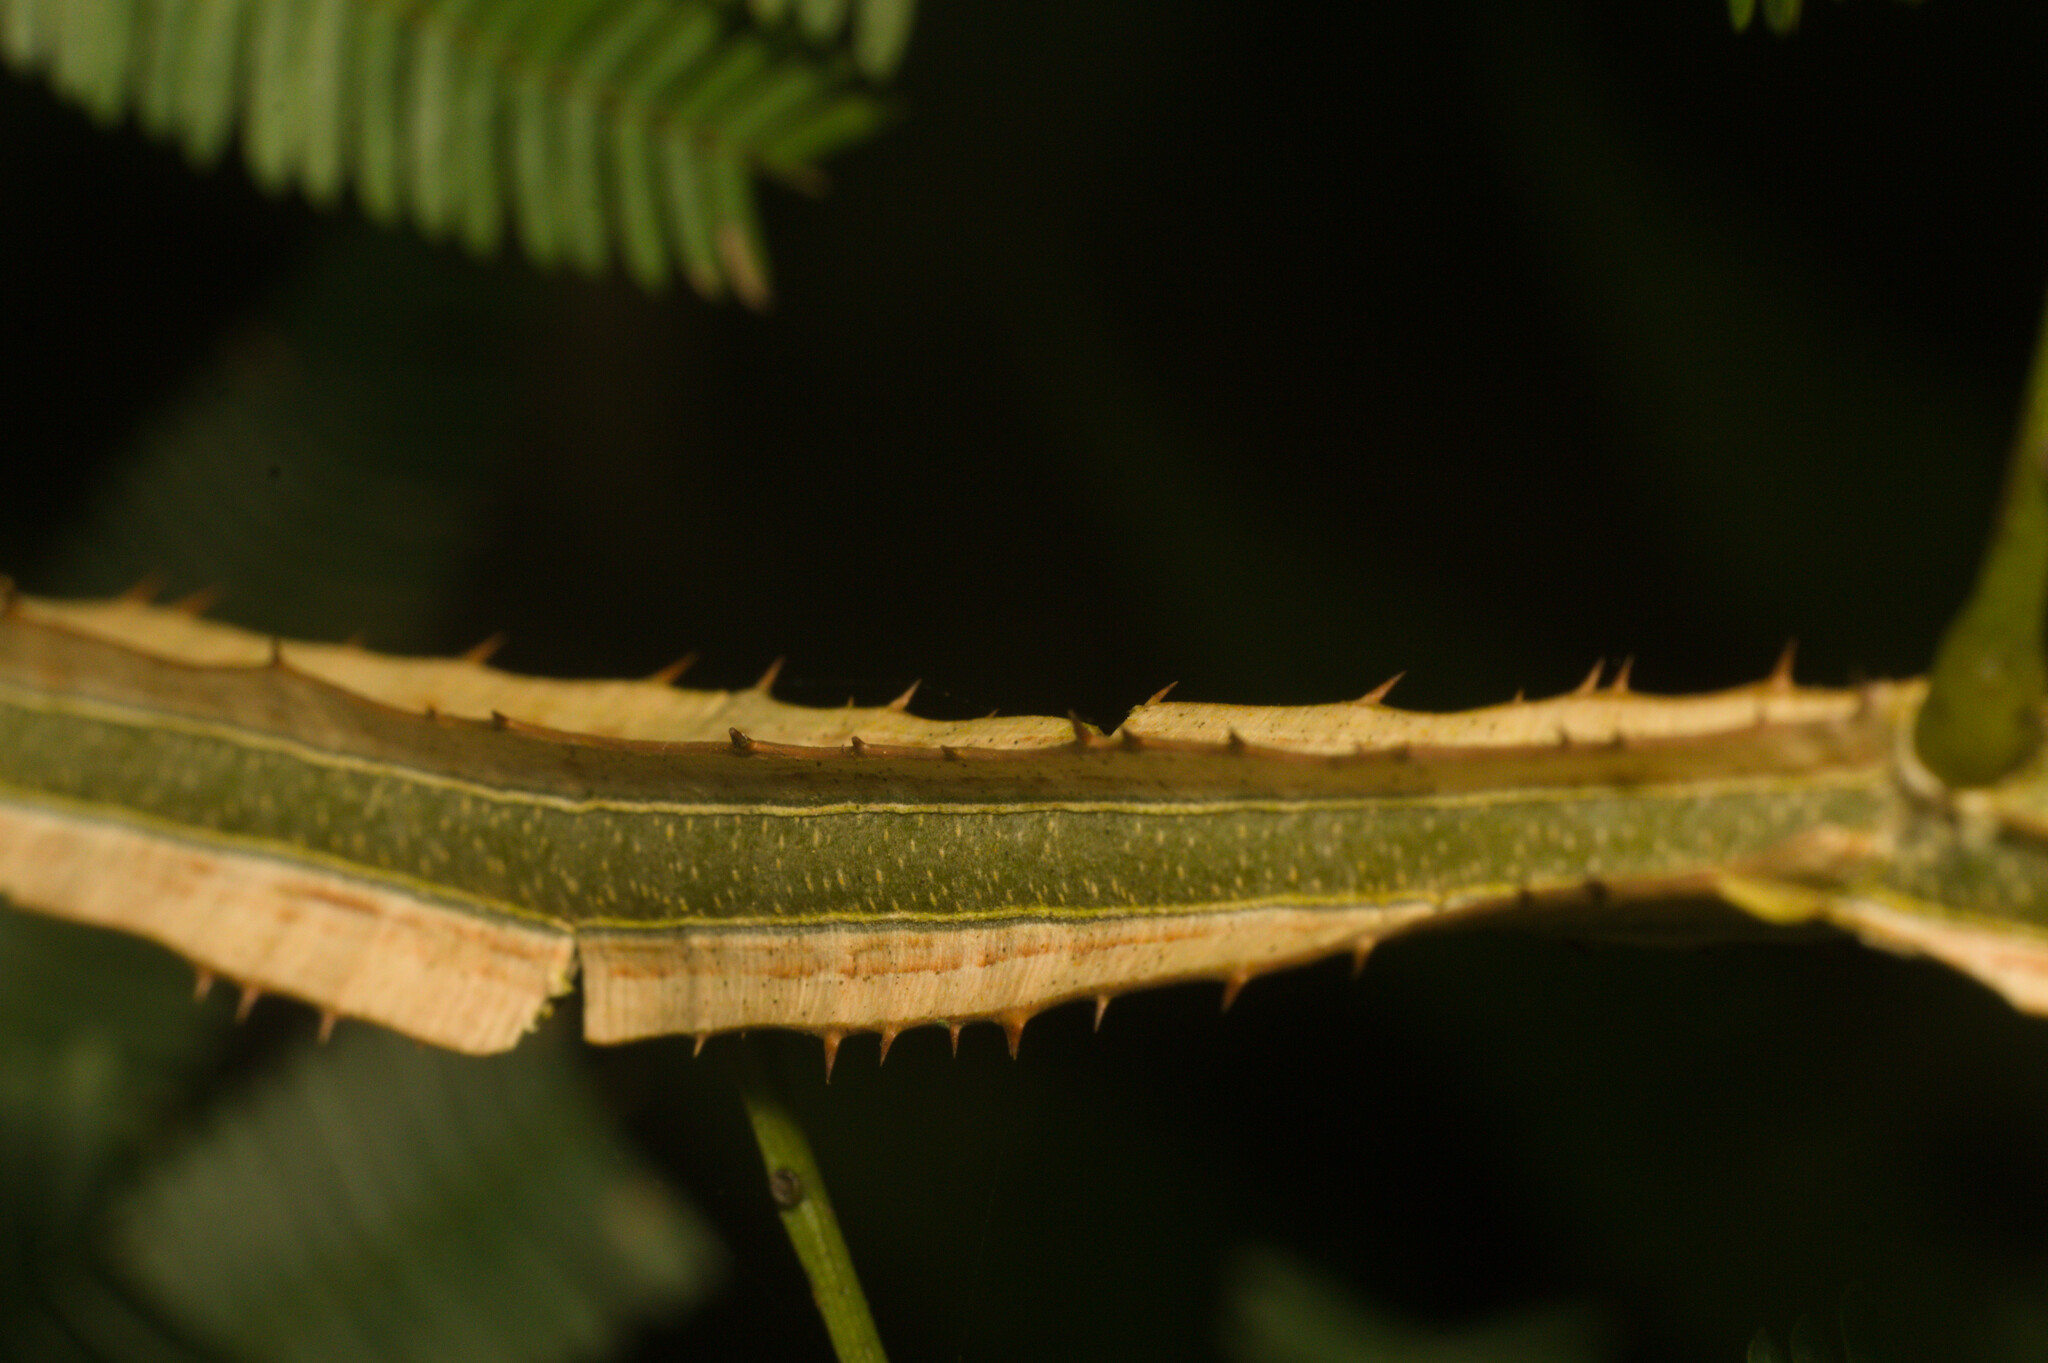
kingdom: Plantae
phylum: Tracheophyta
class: Magnoliopsida
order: Fabales
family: Fabaceae
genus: Piptadenia
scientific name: Piptadenia gonoacantha
